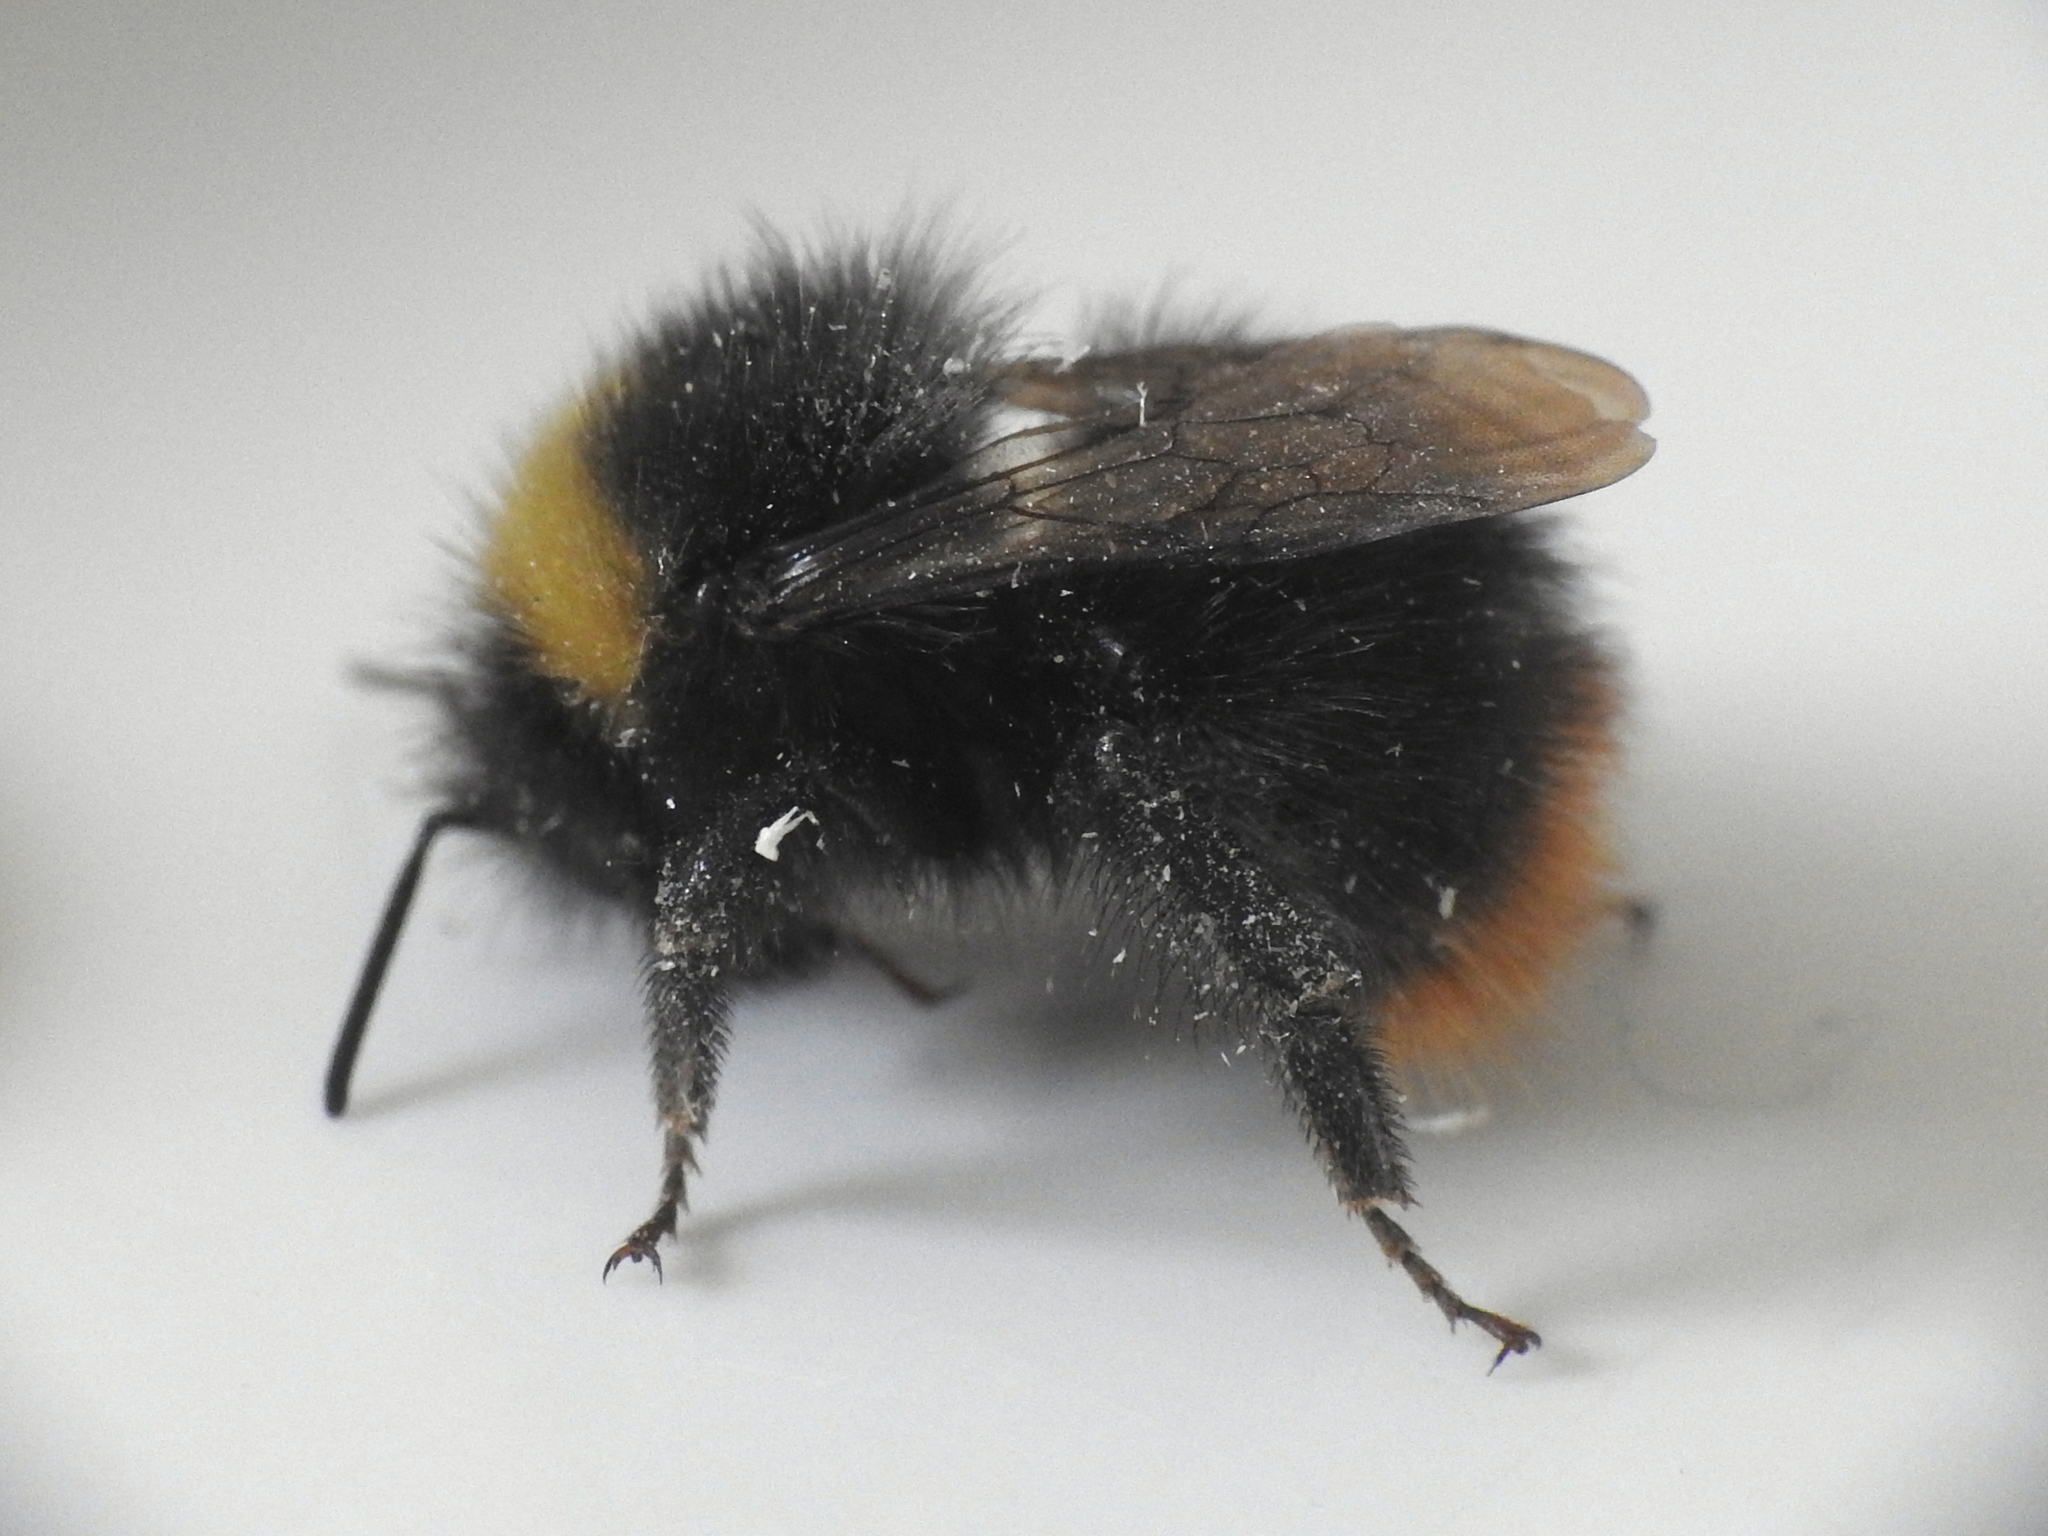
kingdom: Animalia
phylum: Arthropoda
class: Insecta
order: Hymenoptera
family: Apidae
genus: Bombus
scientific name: Bombus pratorum
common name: Early humble-bee
